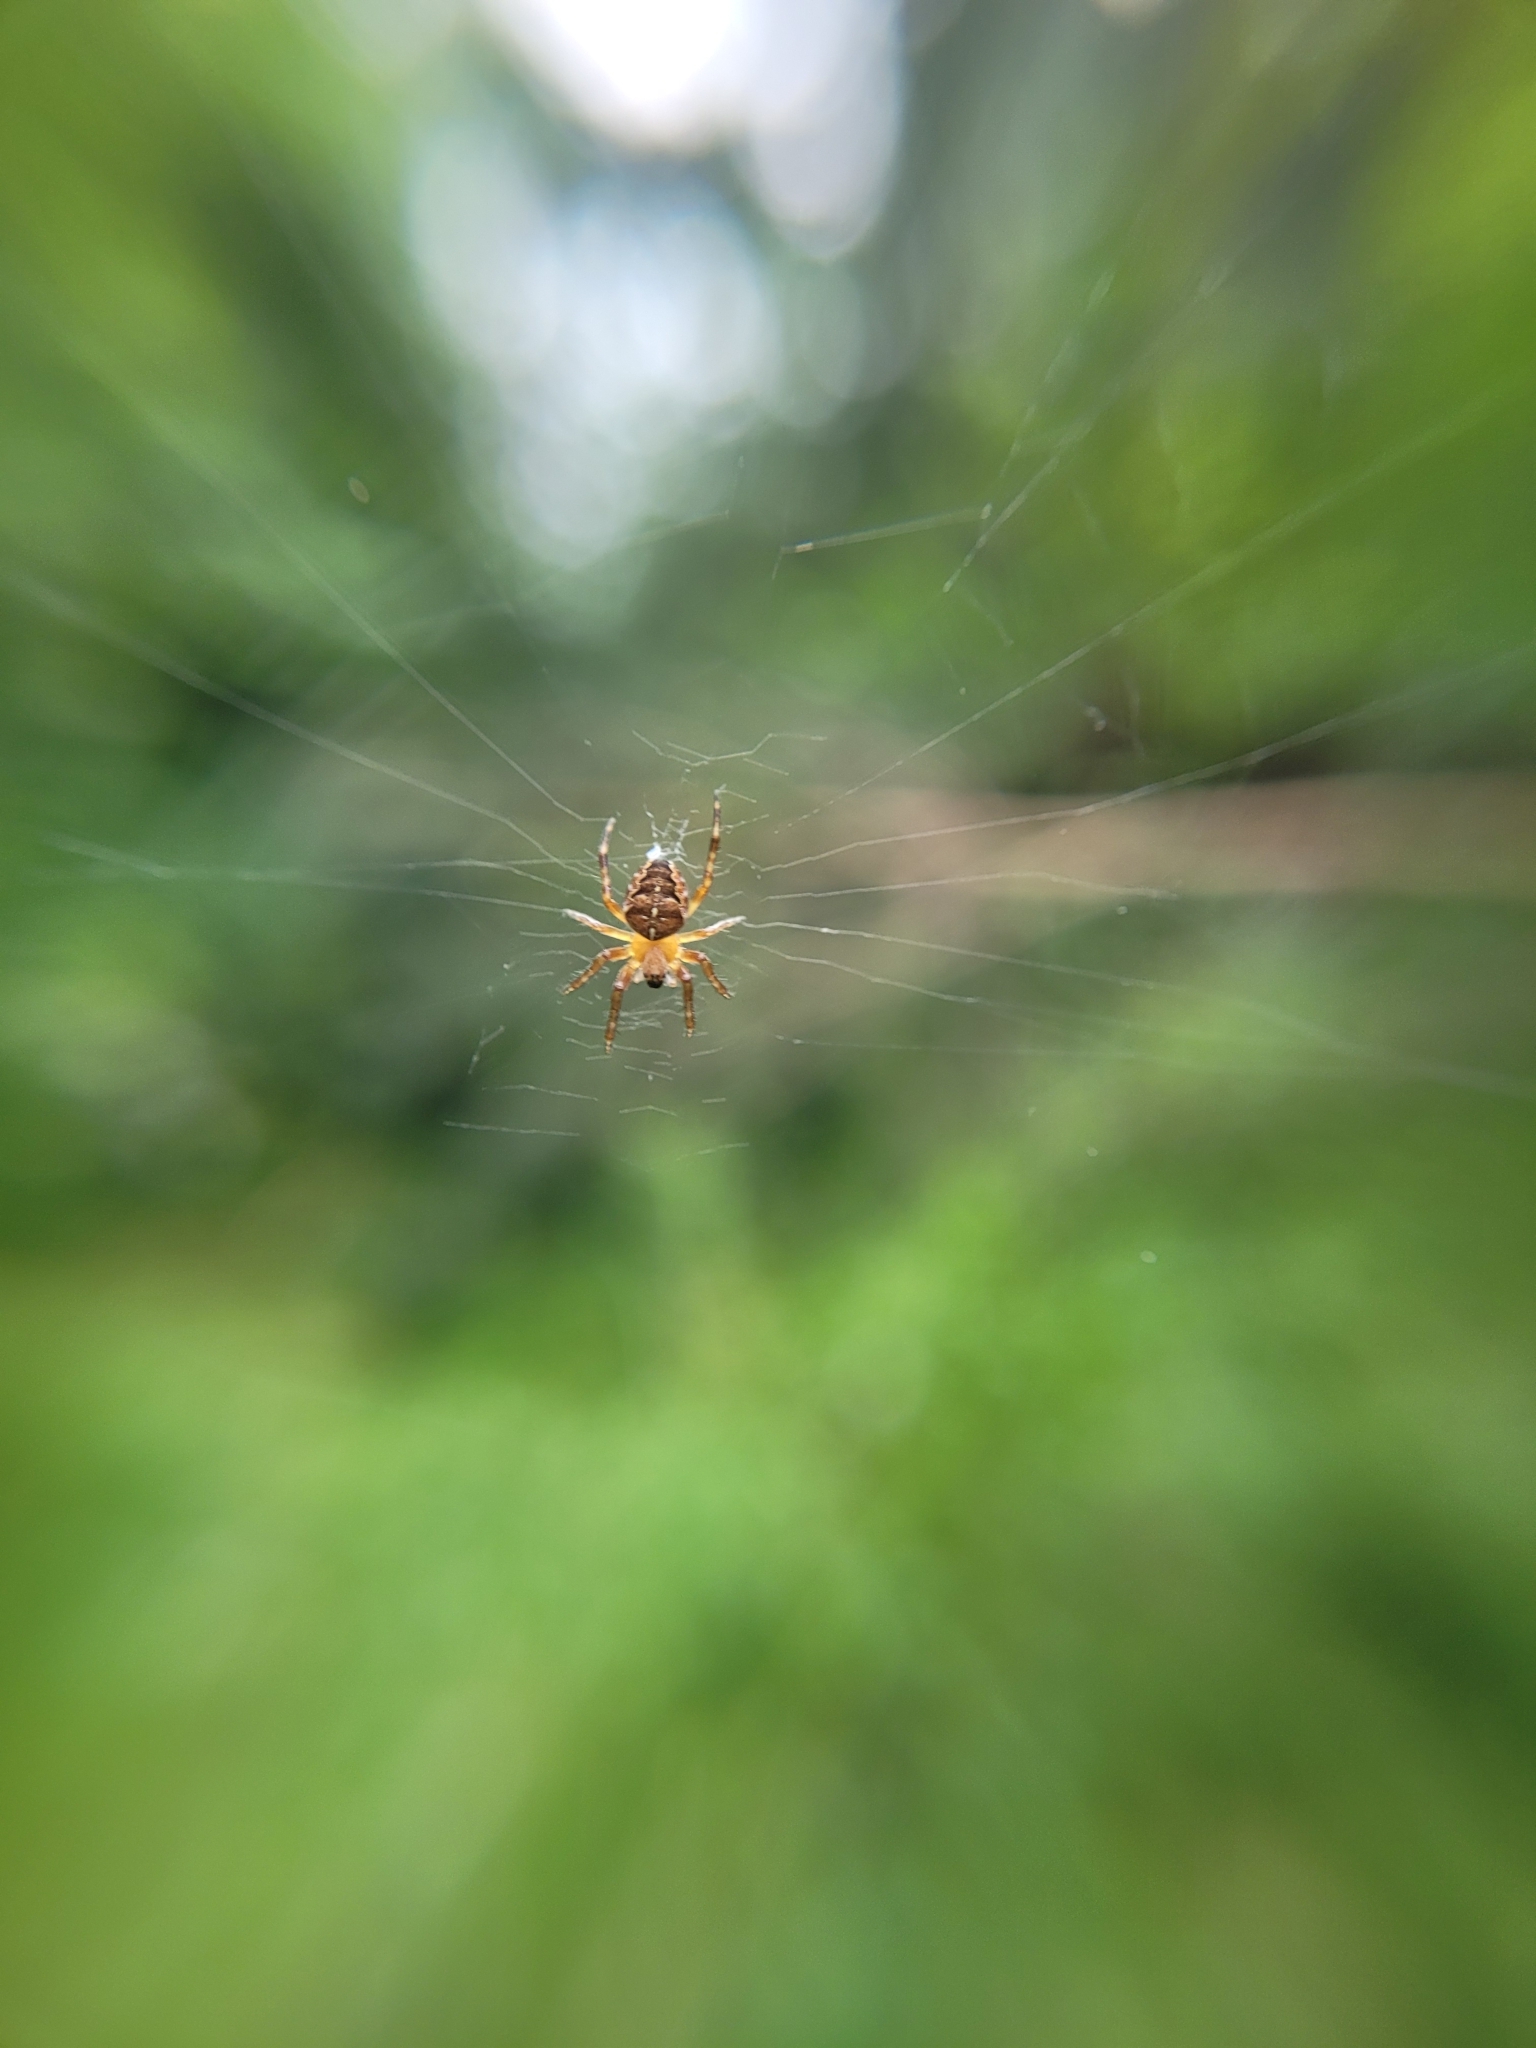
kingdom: Animalia
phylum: Arthropoda
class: Arachnida
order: Araneae
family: Araneidae
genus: Araneus
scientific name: Araneus diadematus
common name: Cross orbweaver
